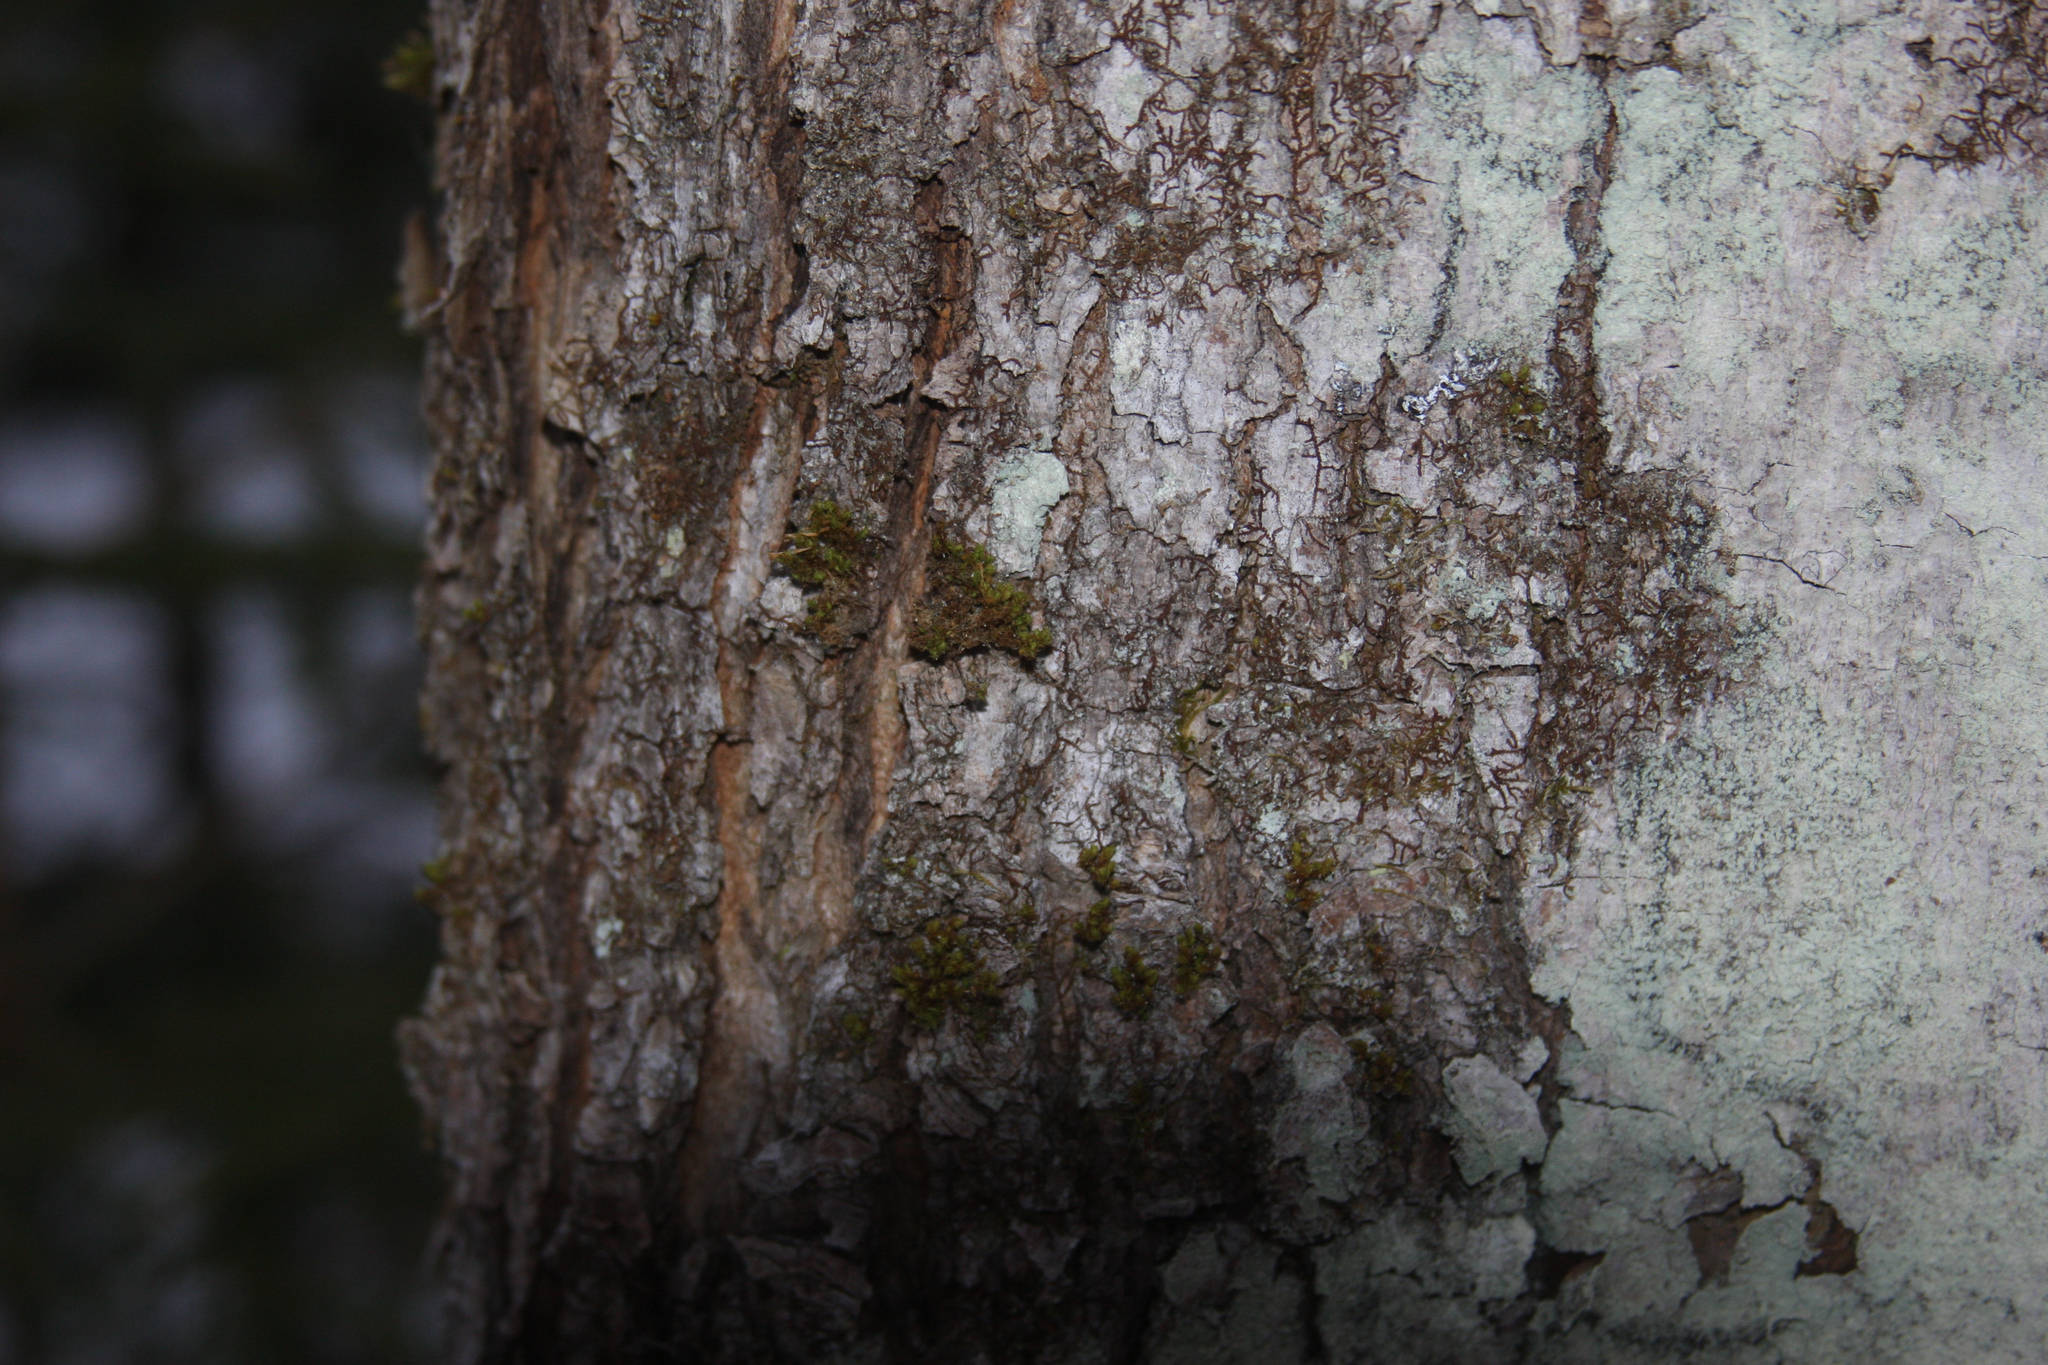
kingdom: Plantae
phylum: Bryophyta
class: Bryopsida
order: Orthotrichales
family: Orthotrichaceae
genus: Ulota
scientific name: Ulota crispa
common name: Crisped pincushion moss
